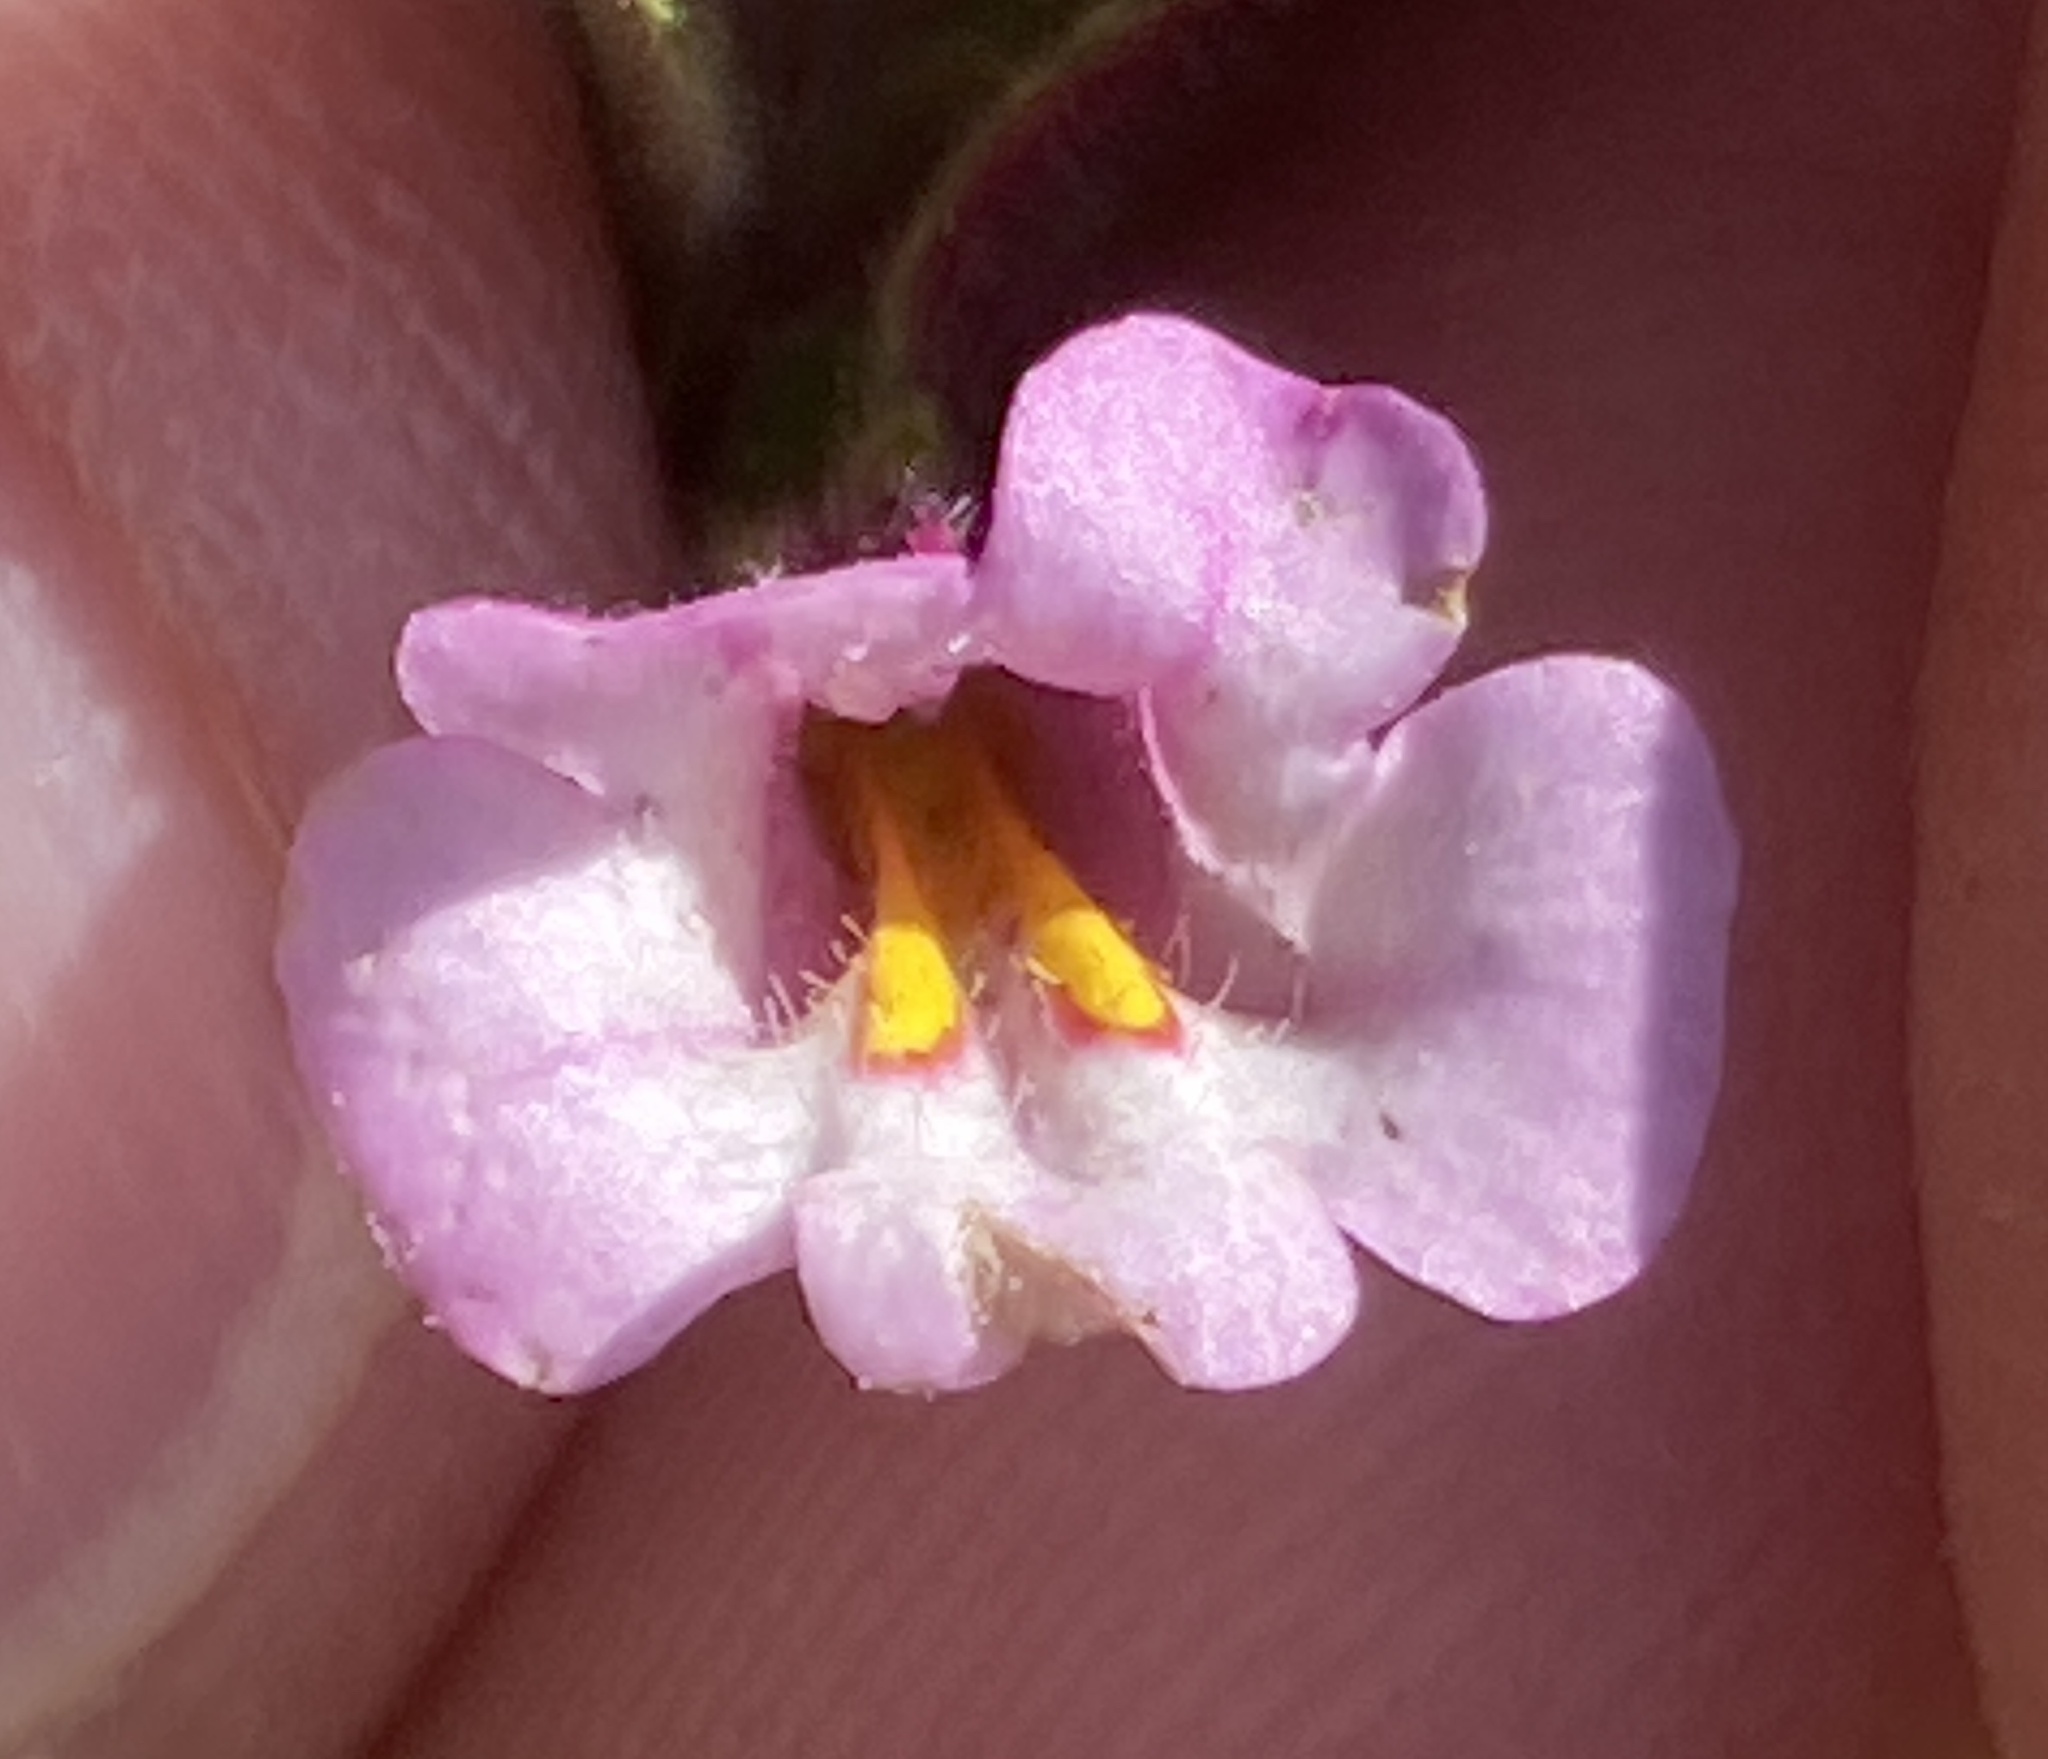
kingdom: Plantae
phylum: Tracheophyta
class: Magnoliopsida
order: Lamiales
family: Phrymaceae
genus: Diplacus
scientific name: Diplacus torreyi
